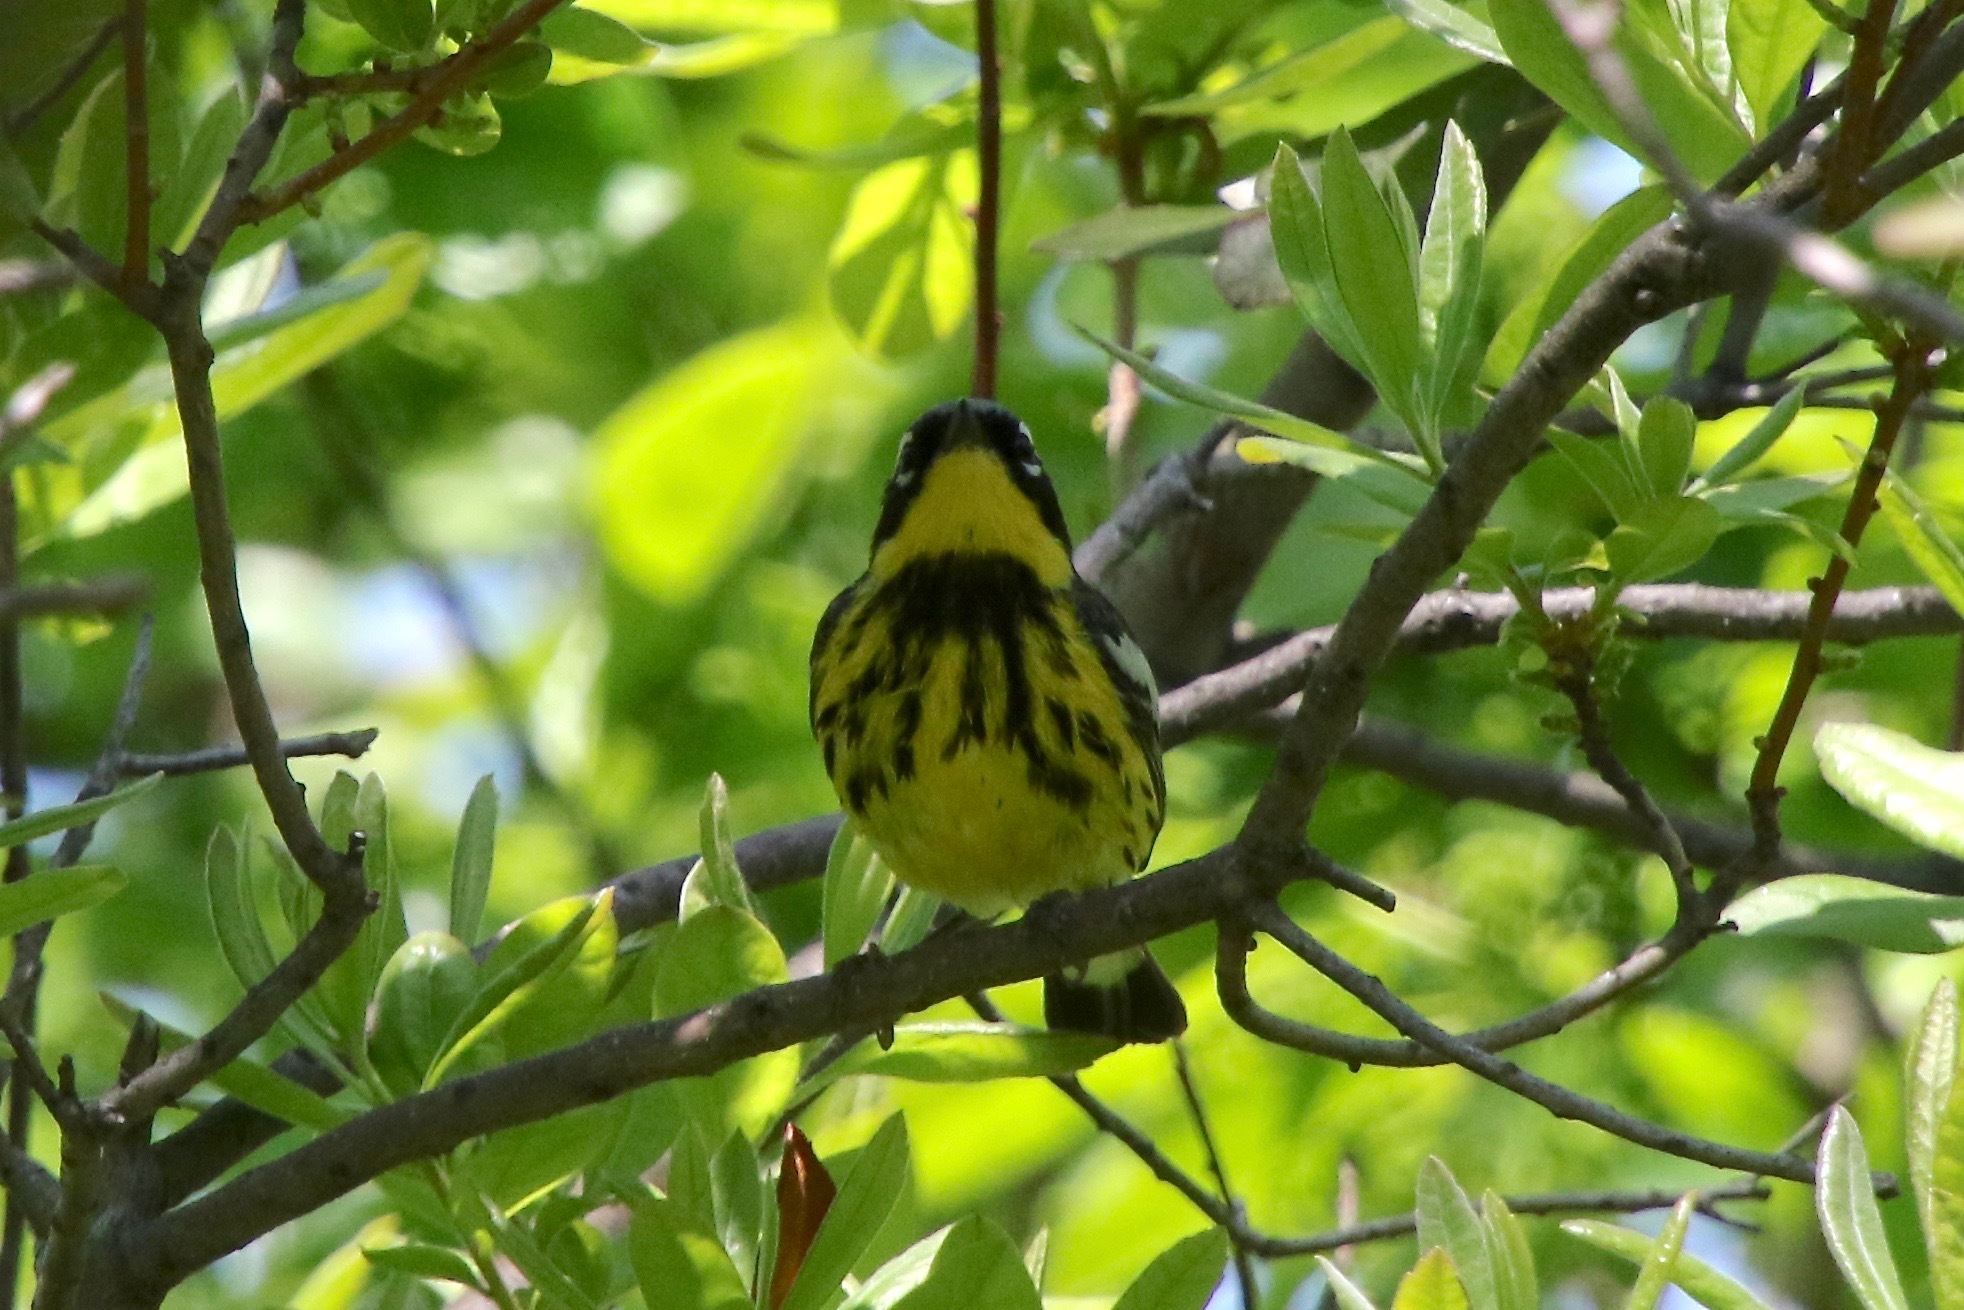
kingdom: Animalia
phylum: Chordata
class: Aves
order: Passeriformes
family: Parulidae
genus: Setophaga
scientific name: Setophaga magnolia
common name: Magnolia warbler
